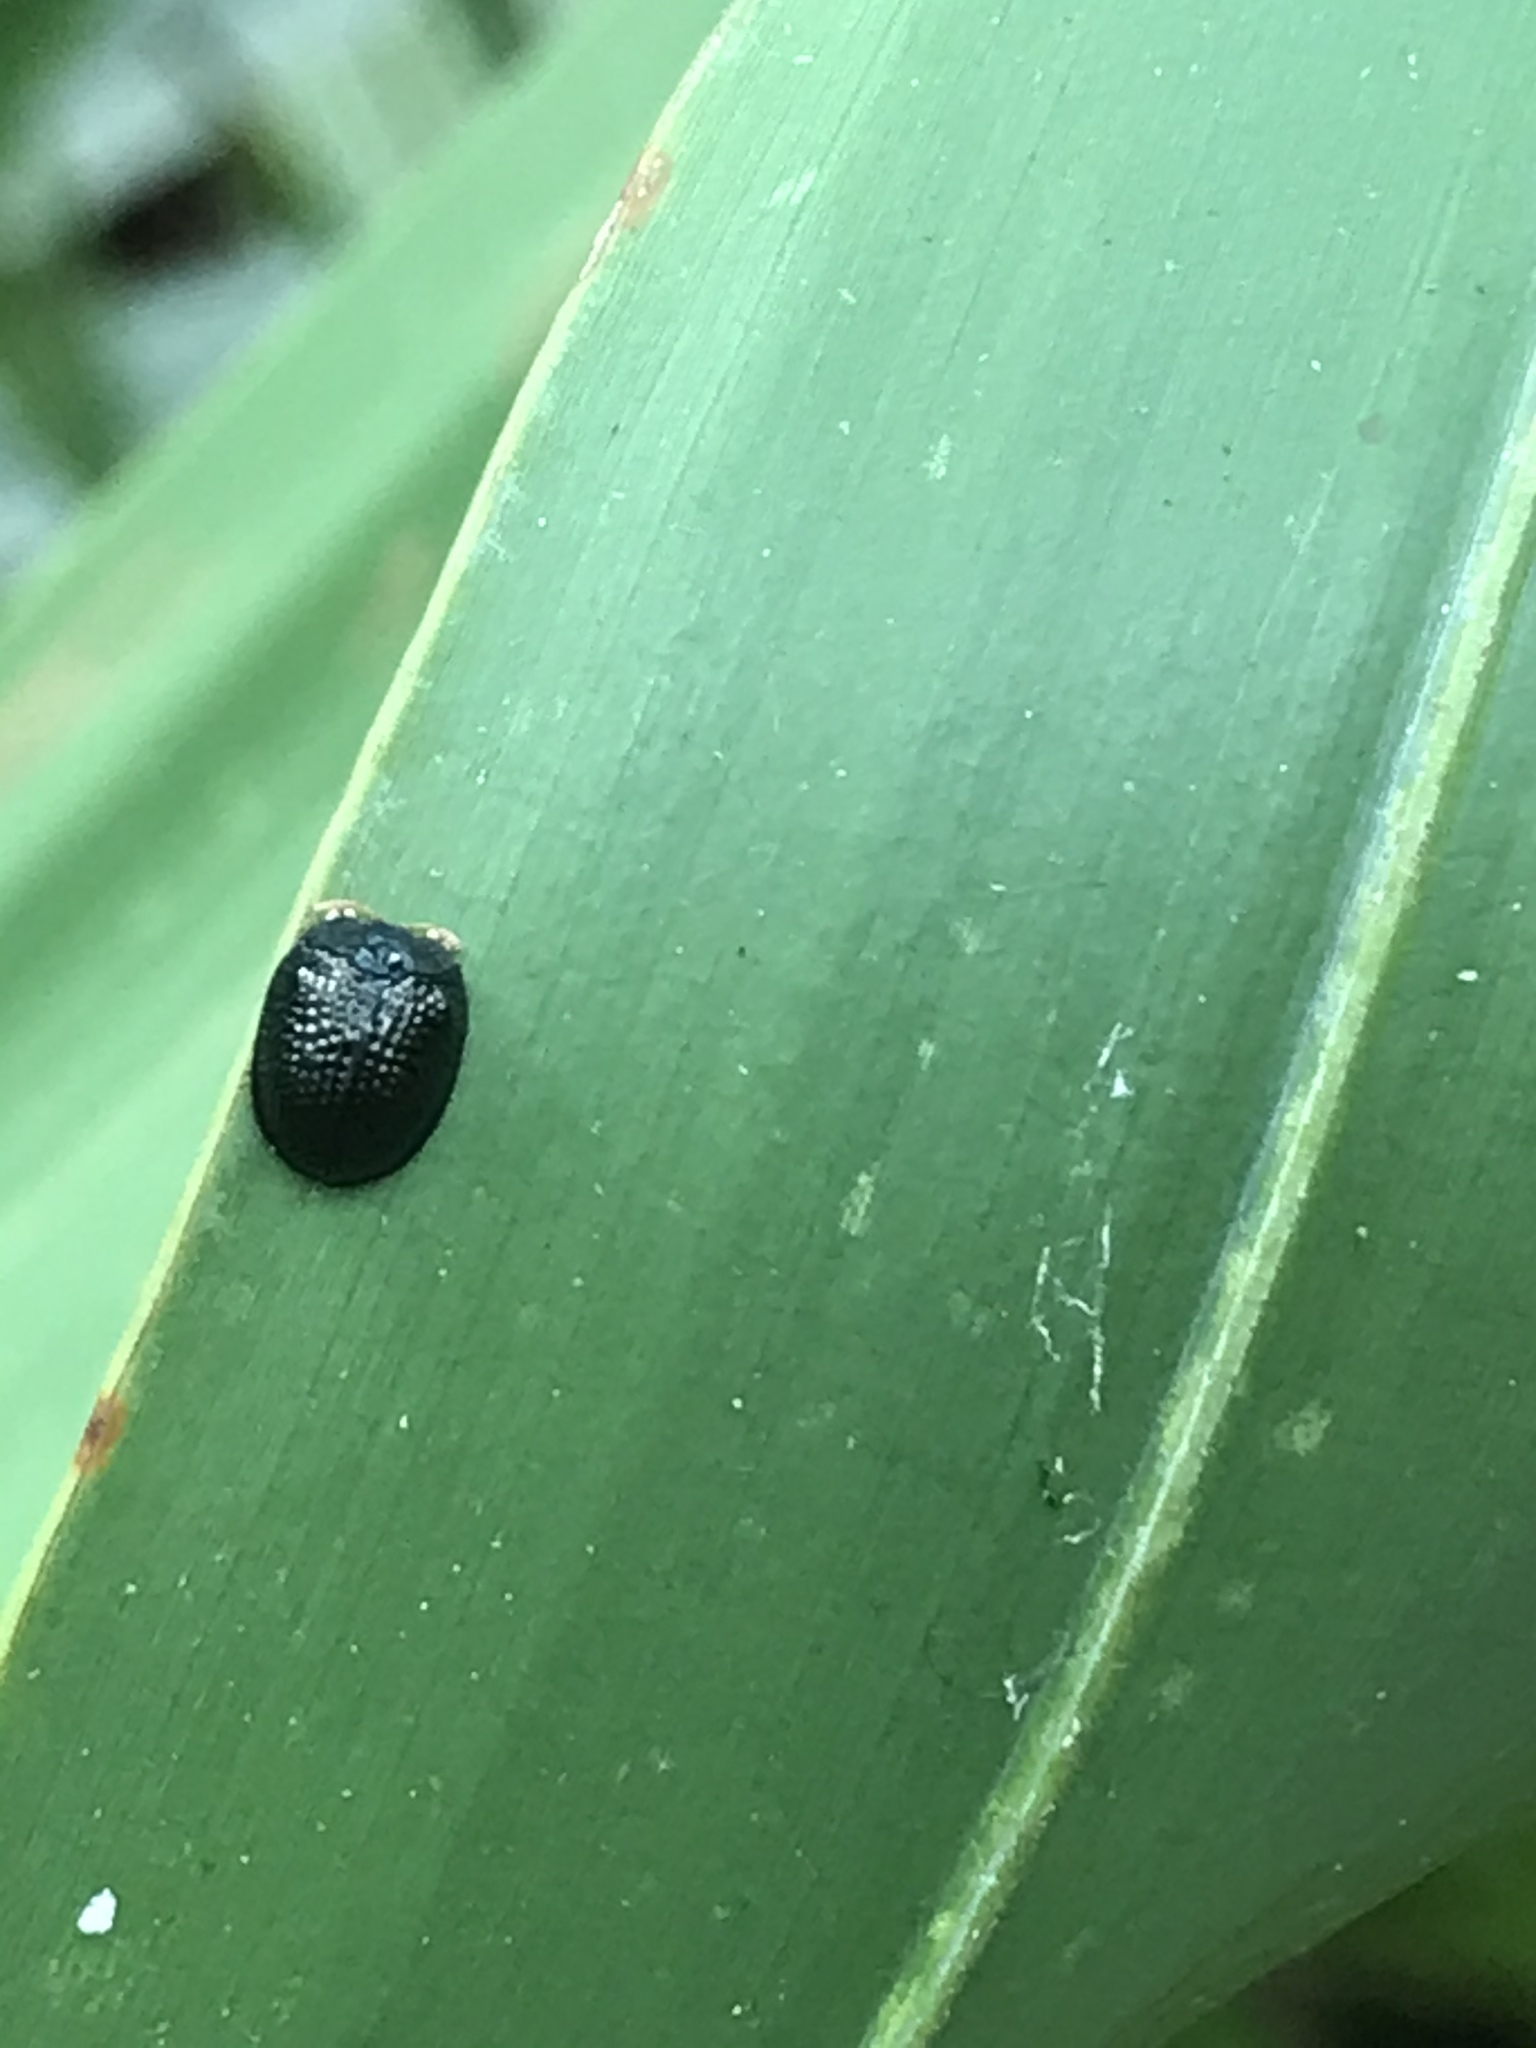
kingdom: Animalia
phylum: Arthropoda
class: Insecta
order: Coleoptera
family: Chrysomelidae
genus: Hemisphaerota
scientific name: Hemisphaerota cyanea
